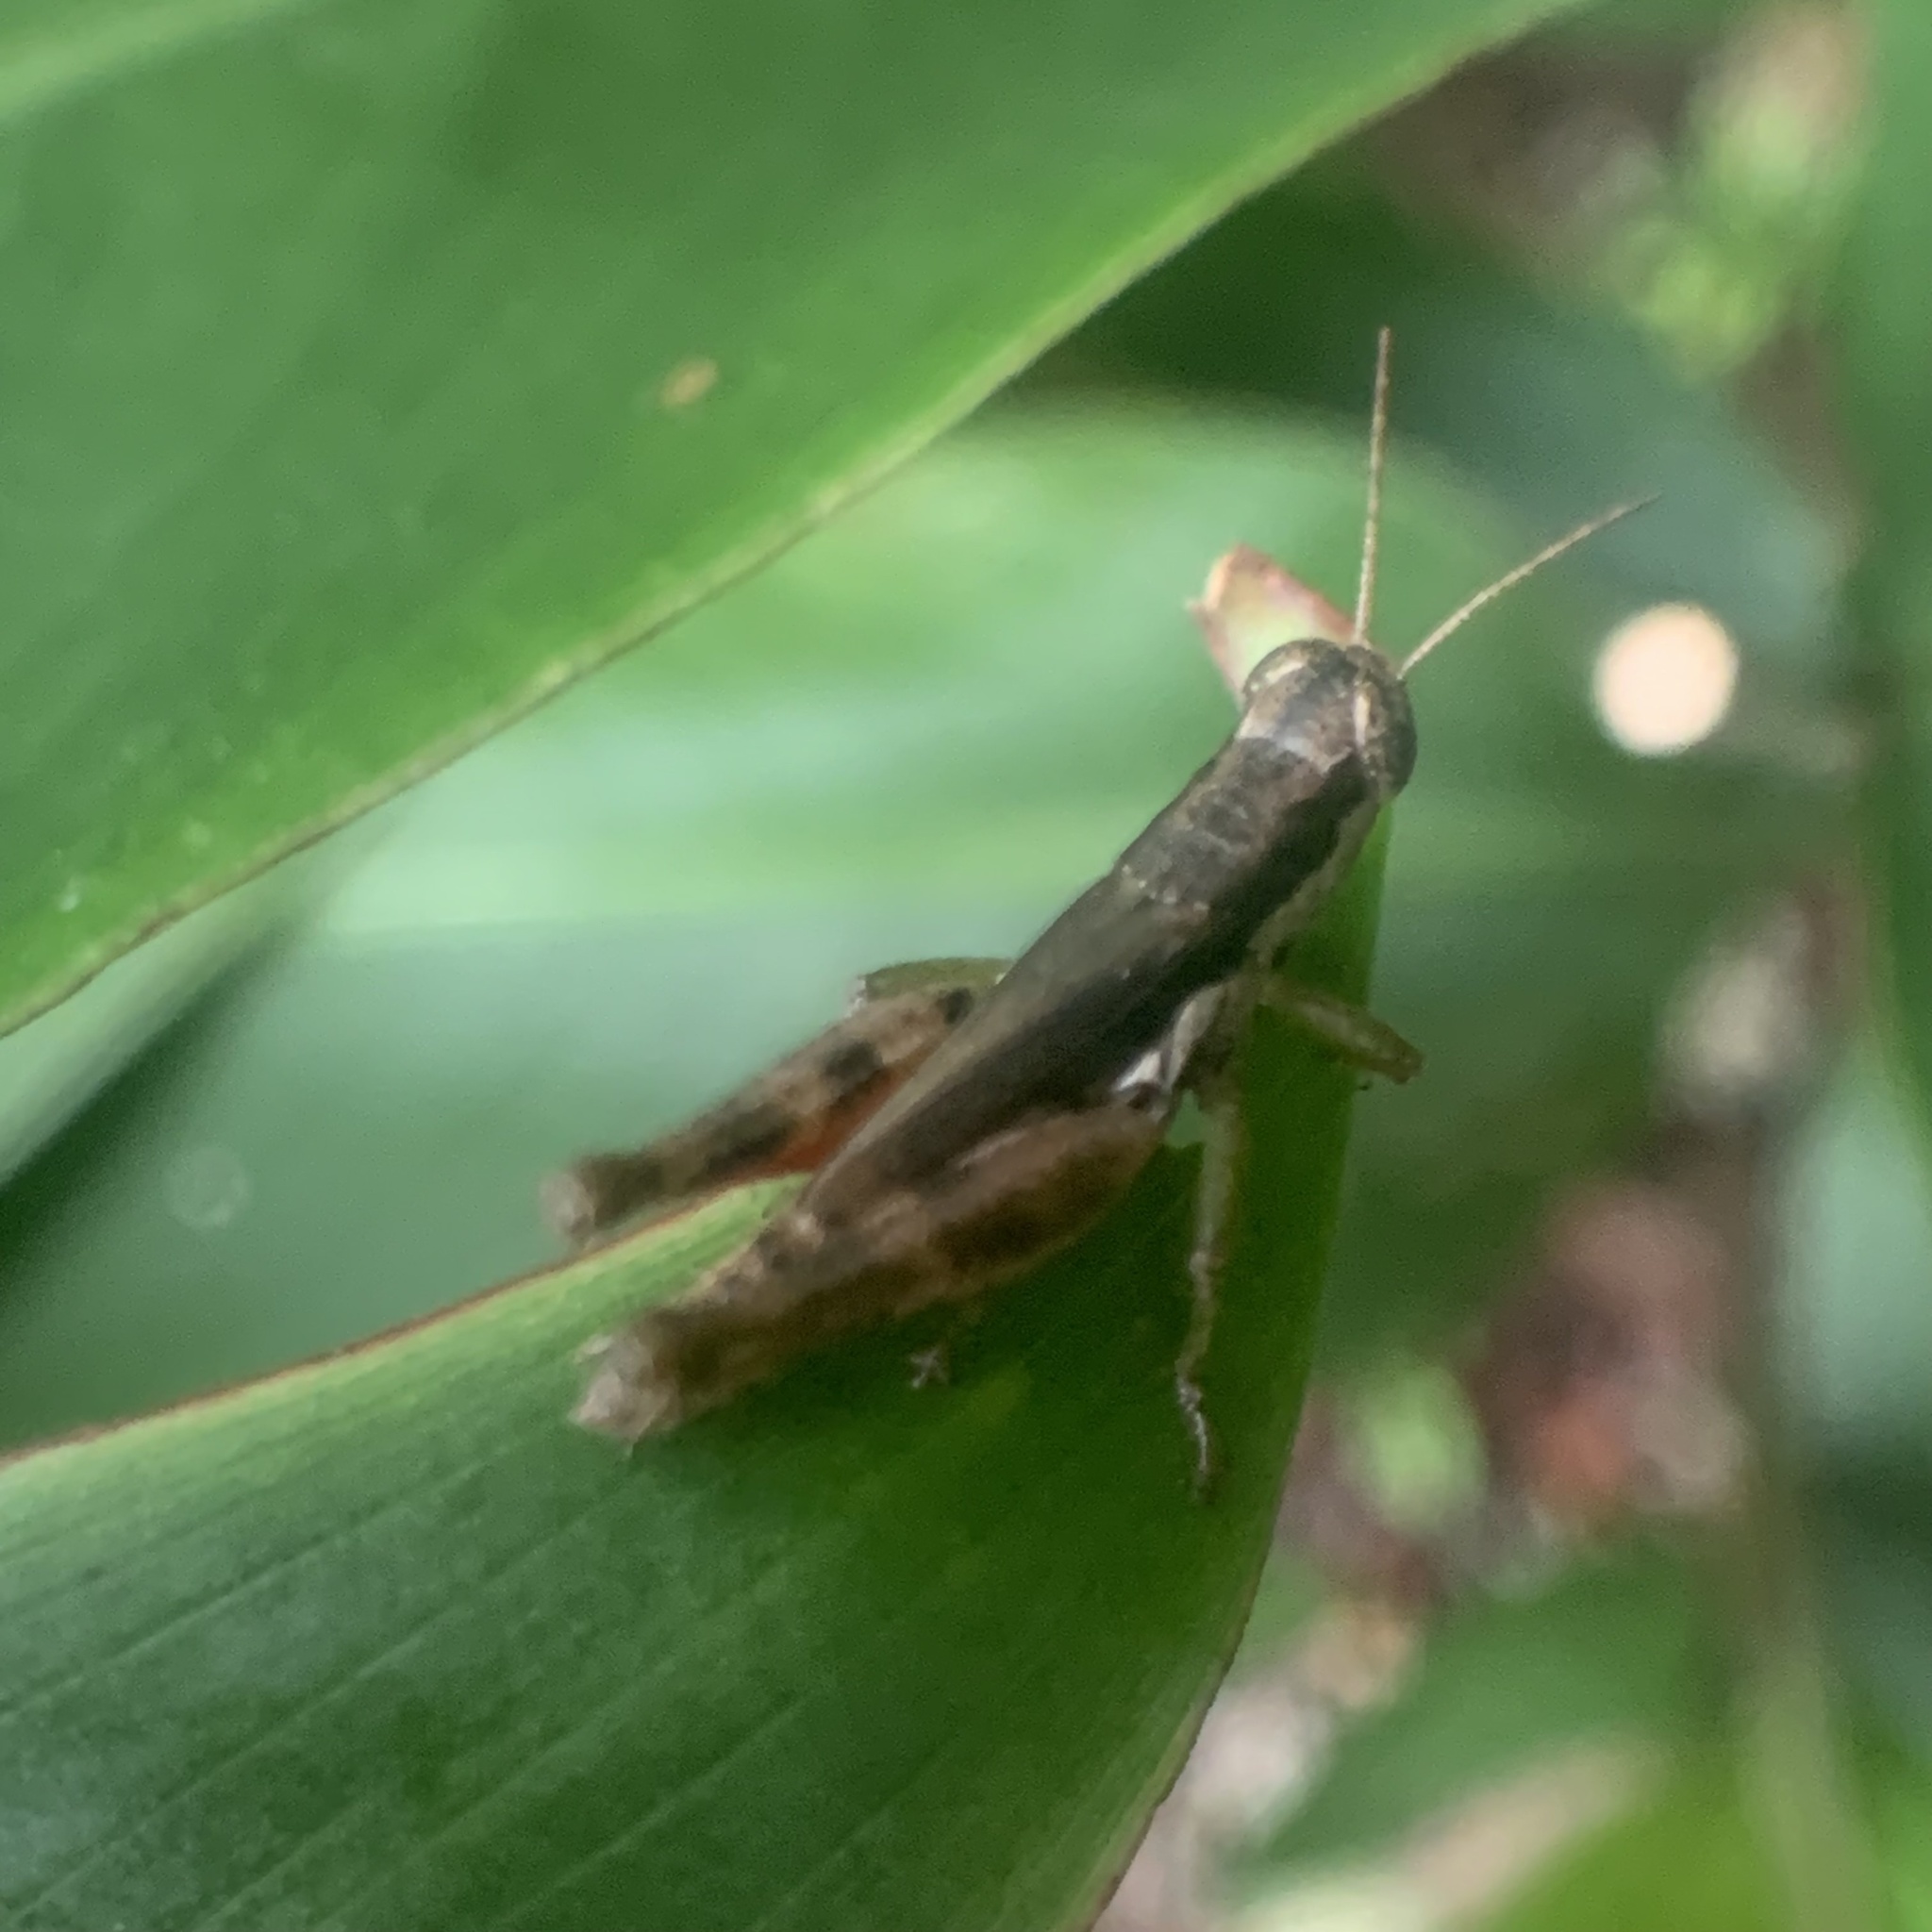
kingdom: Animalia
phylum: Arthropoda
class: Insecta
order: Orthoptera
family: Acrididae
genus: Pseudoxya
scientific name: Pseudoxya diminuta
